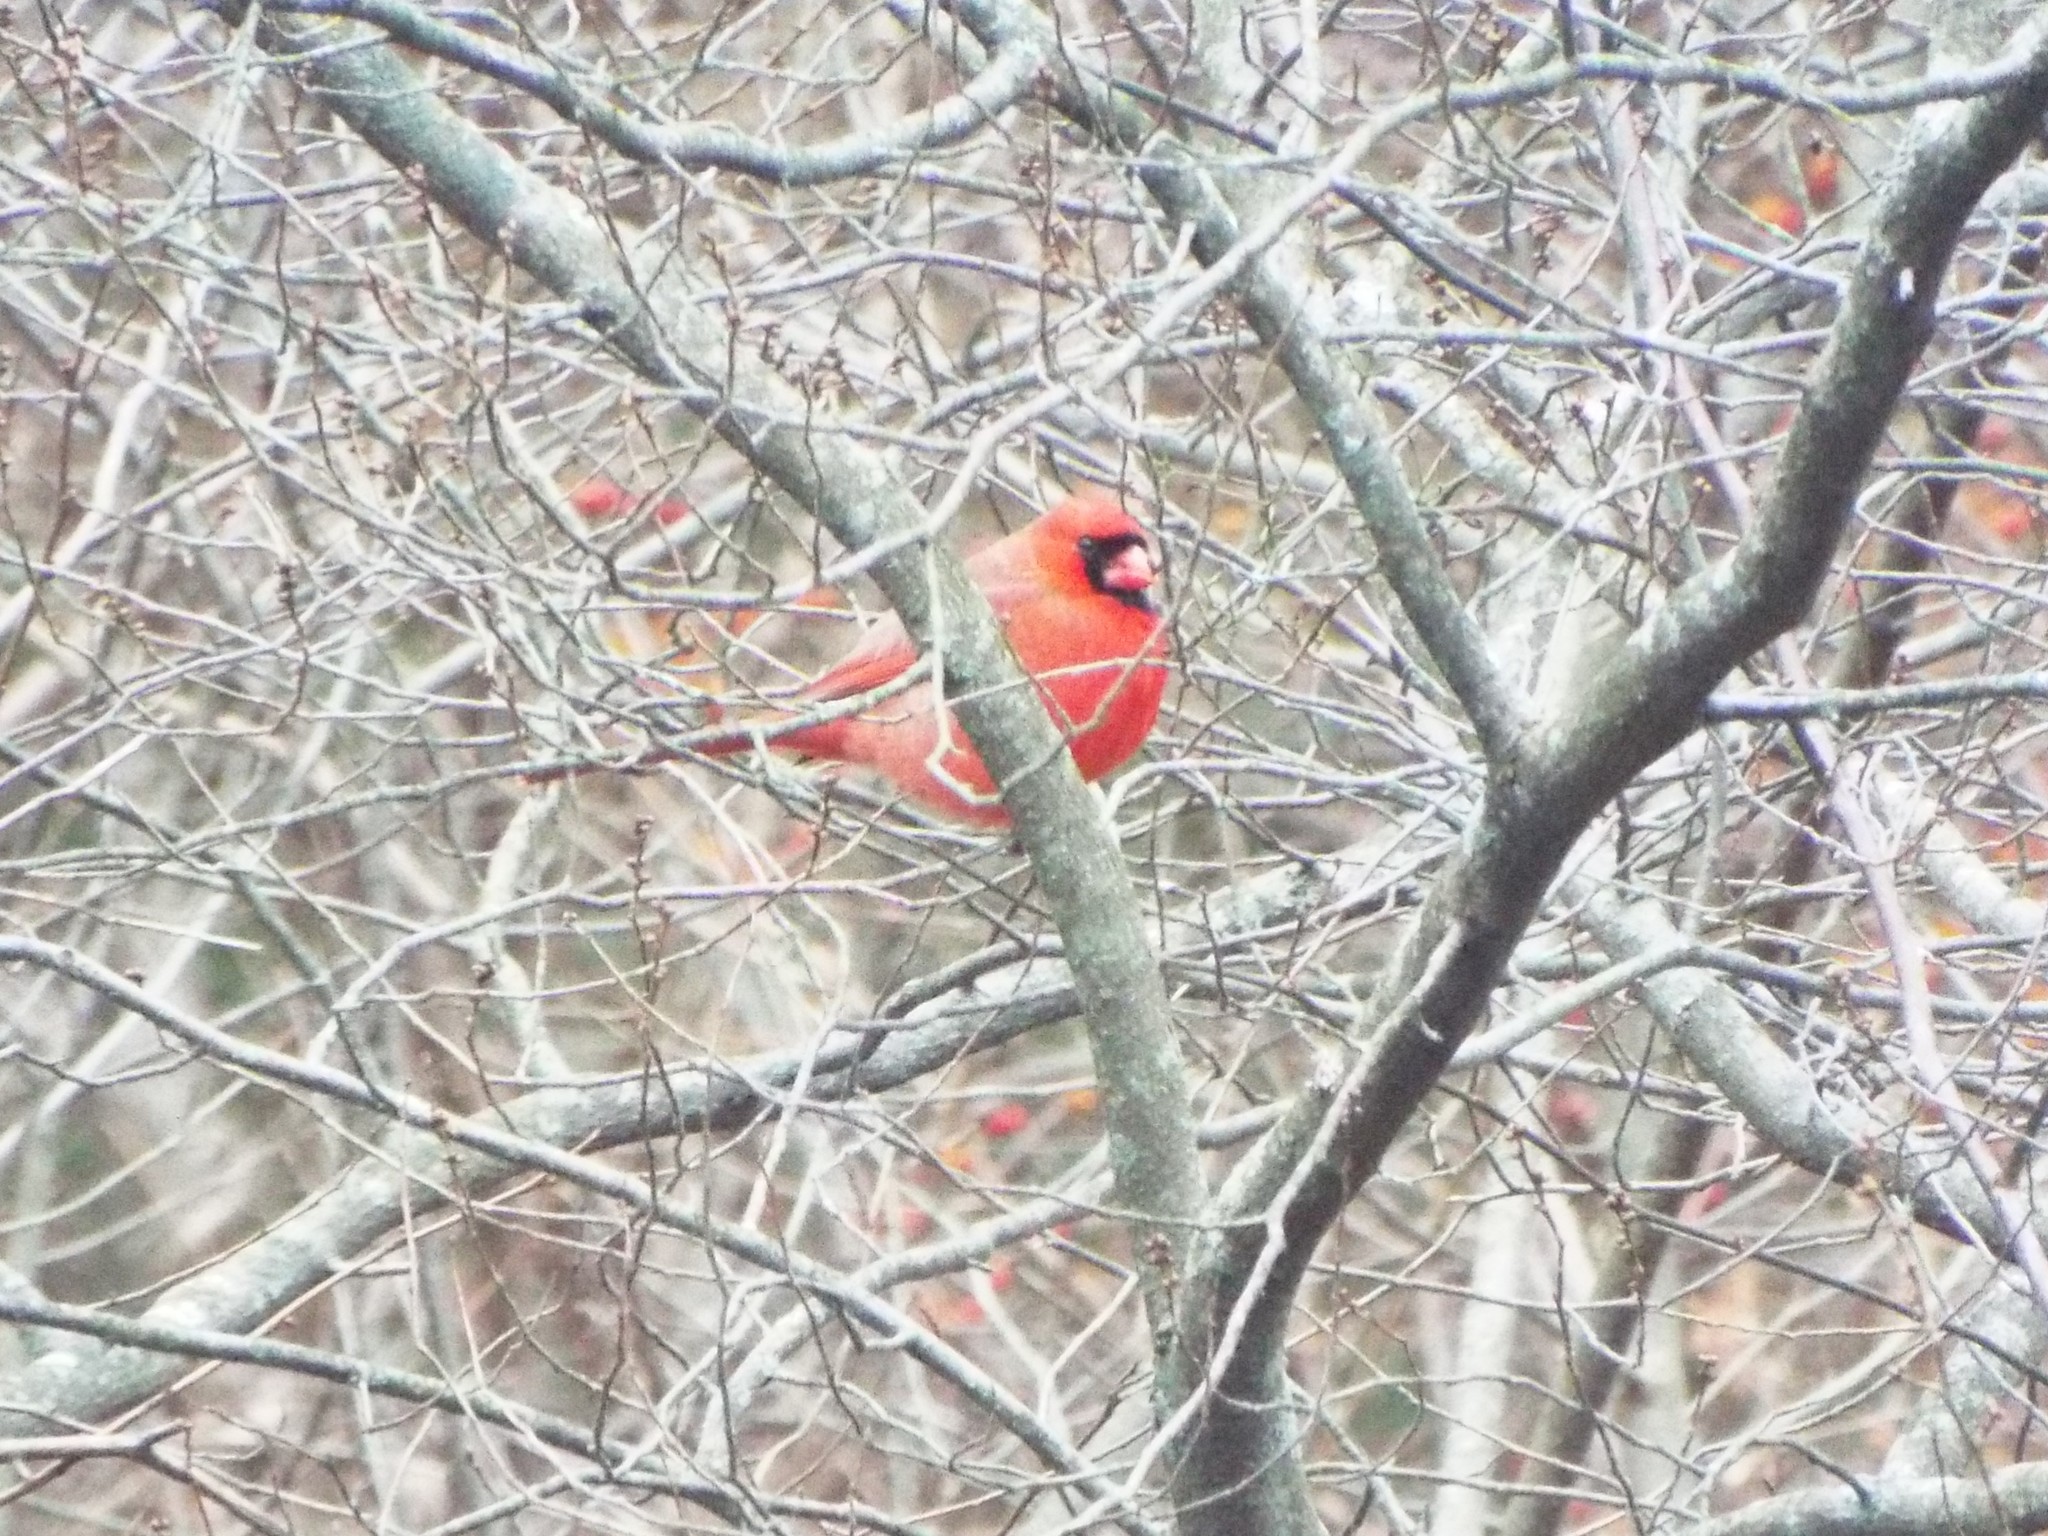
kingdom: Animalia
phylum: Chordata
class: Aves
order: Passeriformes
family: Cardinalidae
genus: Cardinalis
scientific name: Cardinalis cardinalis
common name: Northern cardinal
